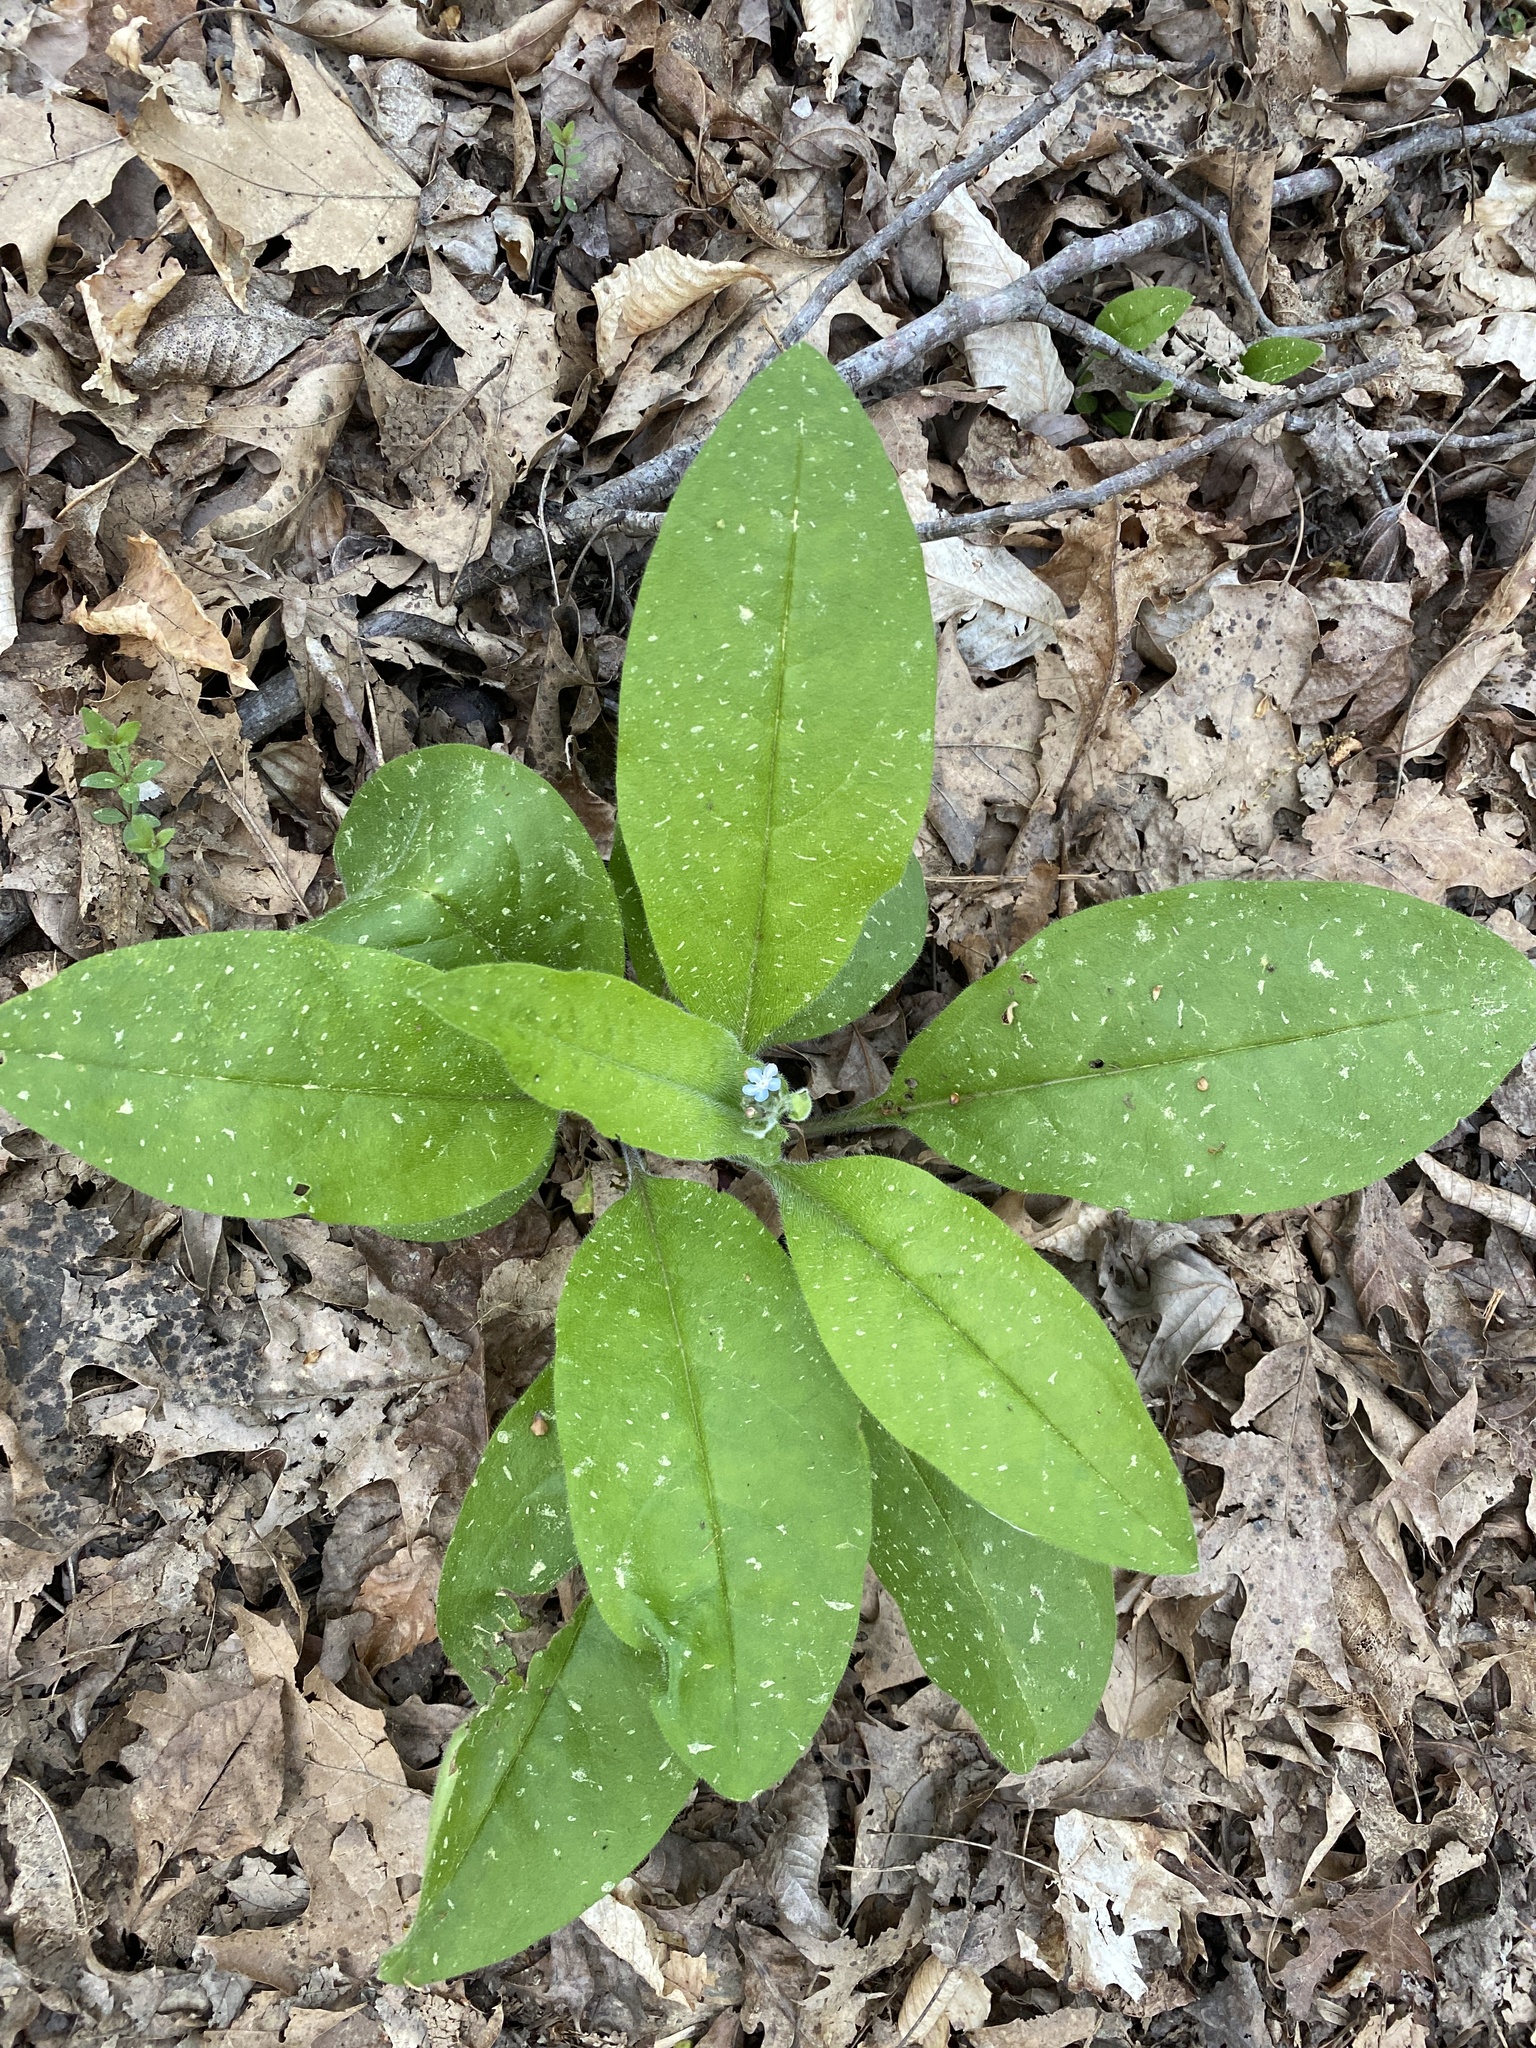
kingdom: Plantae
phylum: Tracheophyta
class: Magnoliopsida
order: Boraginales
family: Boraginaceae
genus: Andersonglossum
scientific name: Andersonglossum virginianum
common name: Wild comfrey
